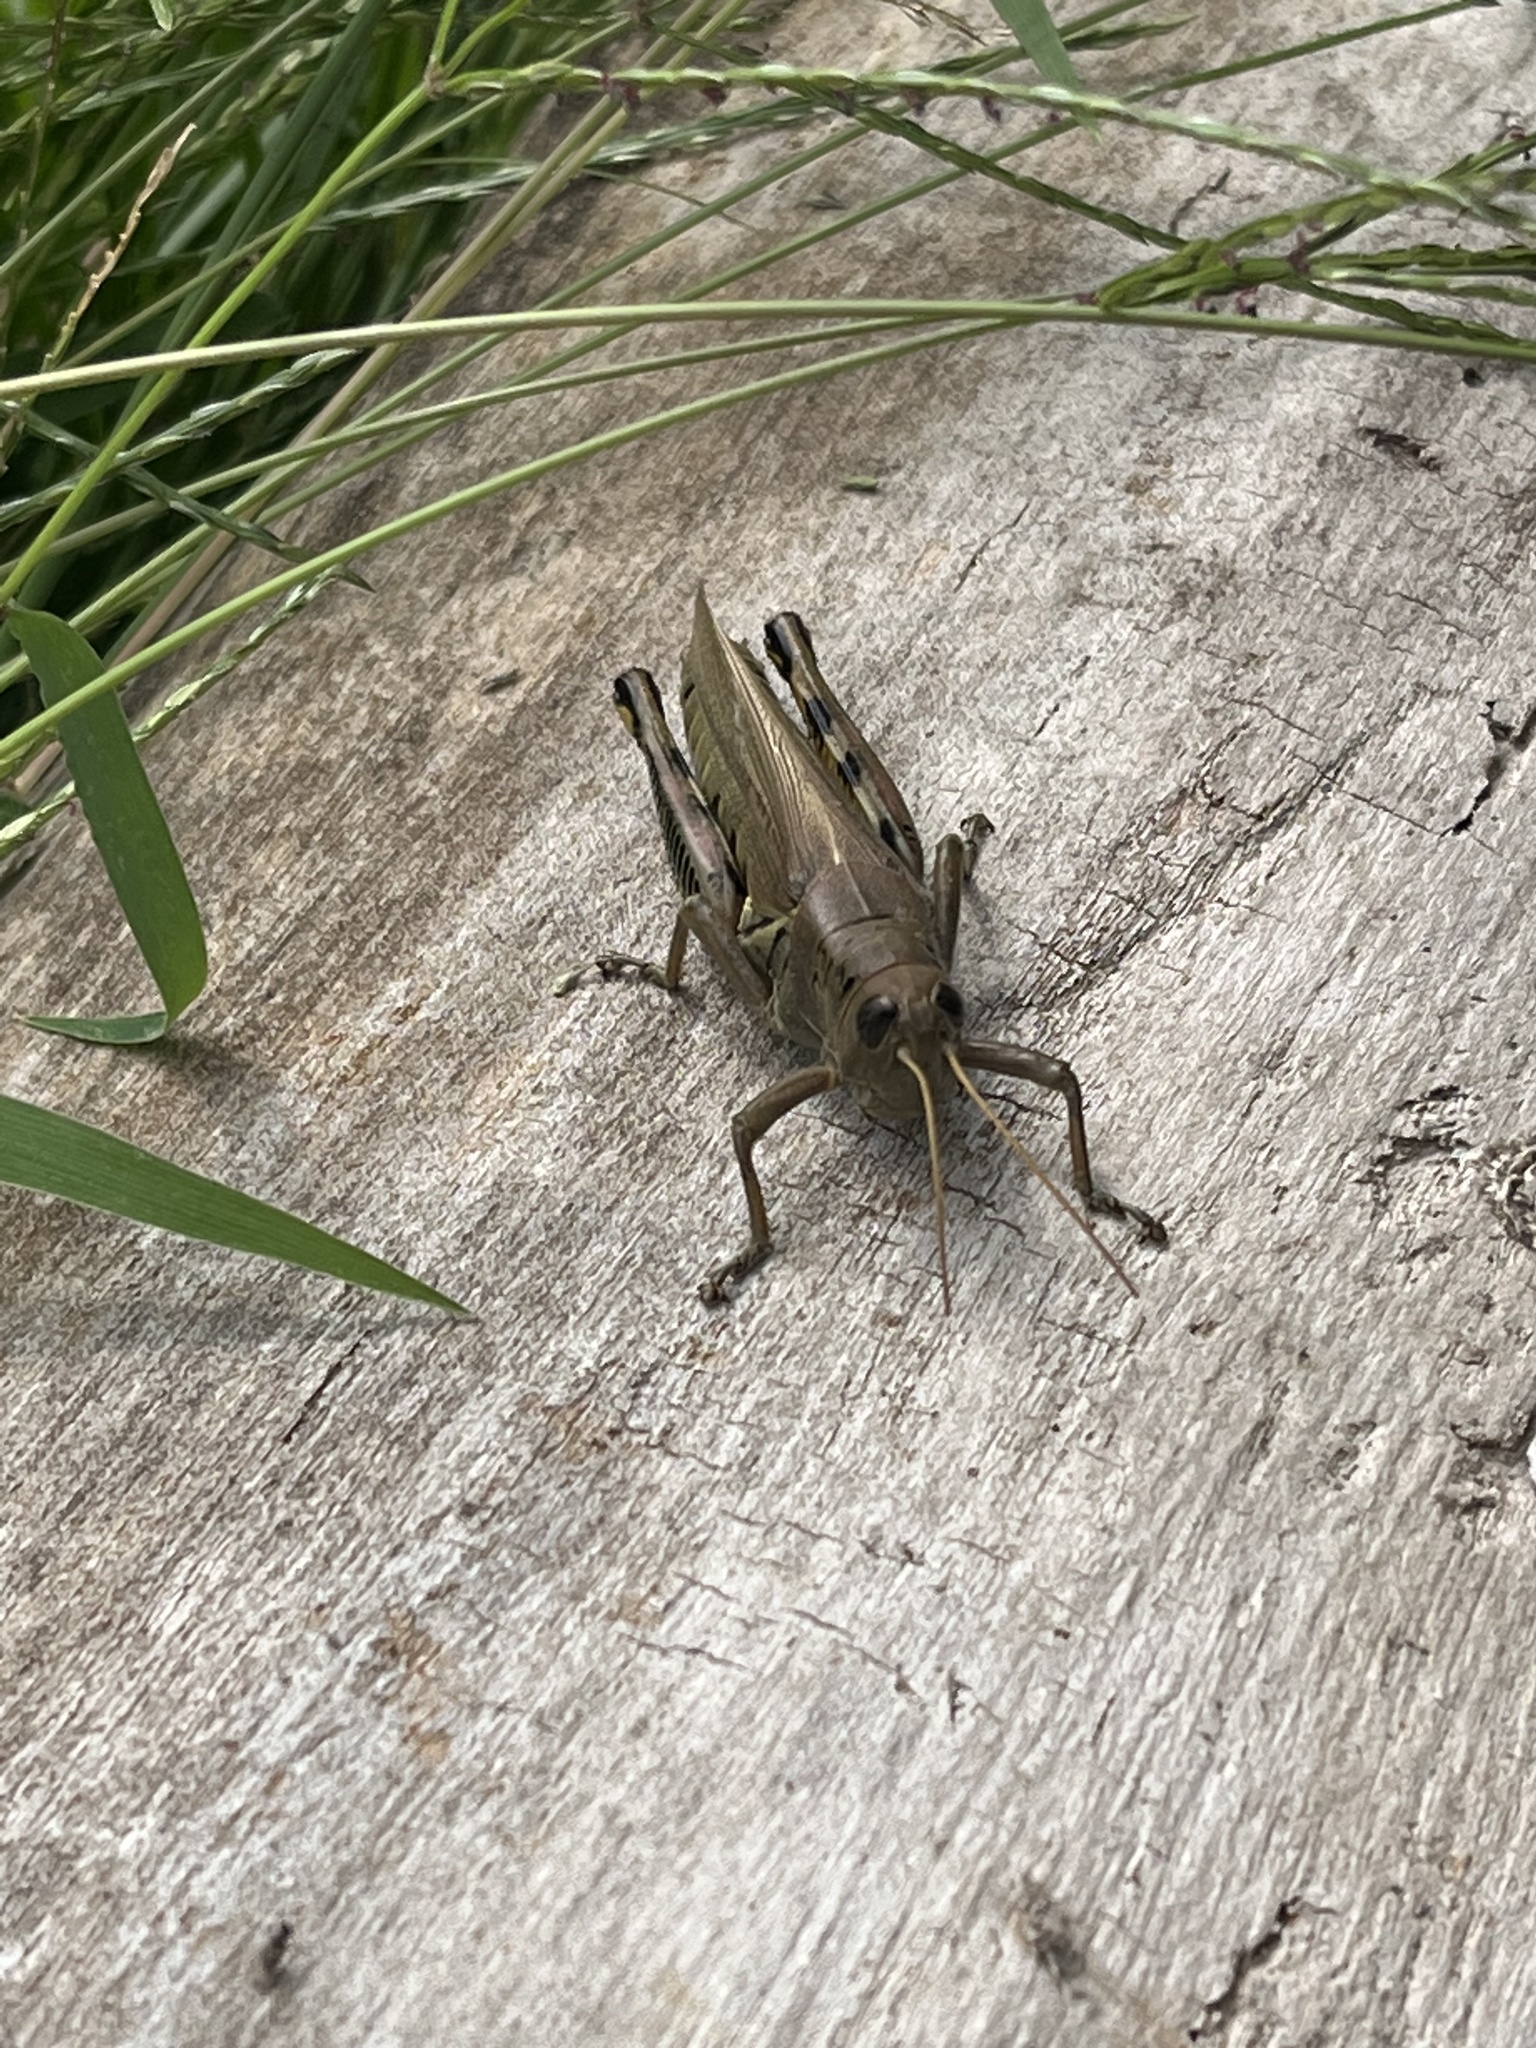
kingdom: Animalia
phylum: Arthropoda
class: Insecta
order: Orthoptera
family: Acrididae
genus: Melanoplus
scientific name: Melanoplus differentialis
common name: Differential grasshopper
